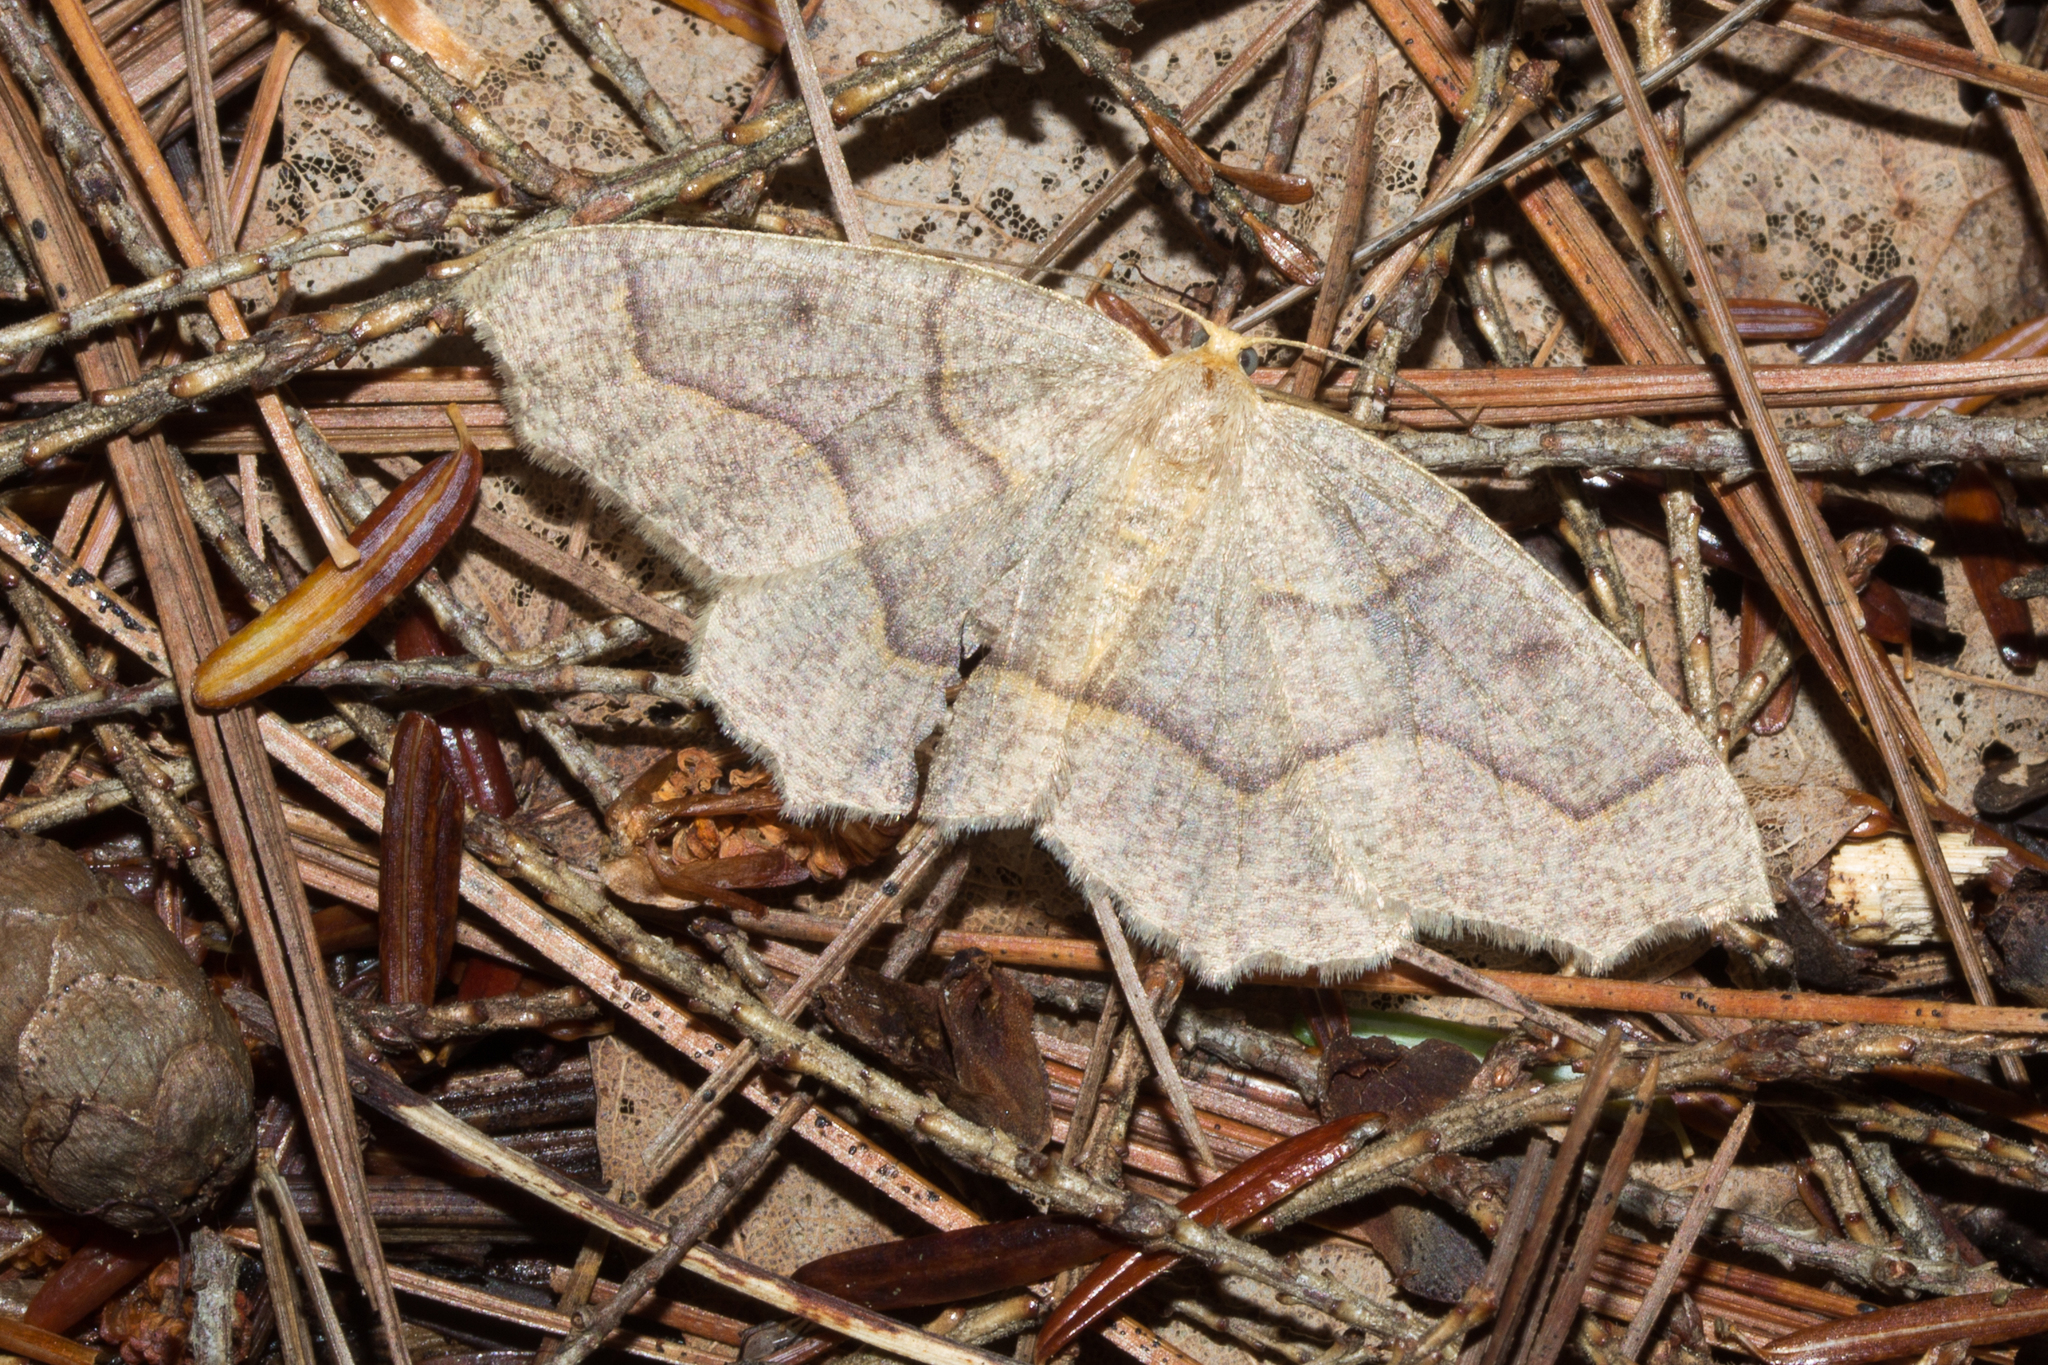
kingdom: Animalia
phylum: Arthropoda
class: Insecta
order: Lepidoptera
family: Geometridae
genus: Lambdina
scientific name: Lambdina fiscellaria
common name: Hemlock looper
